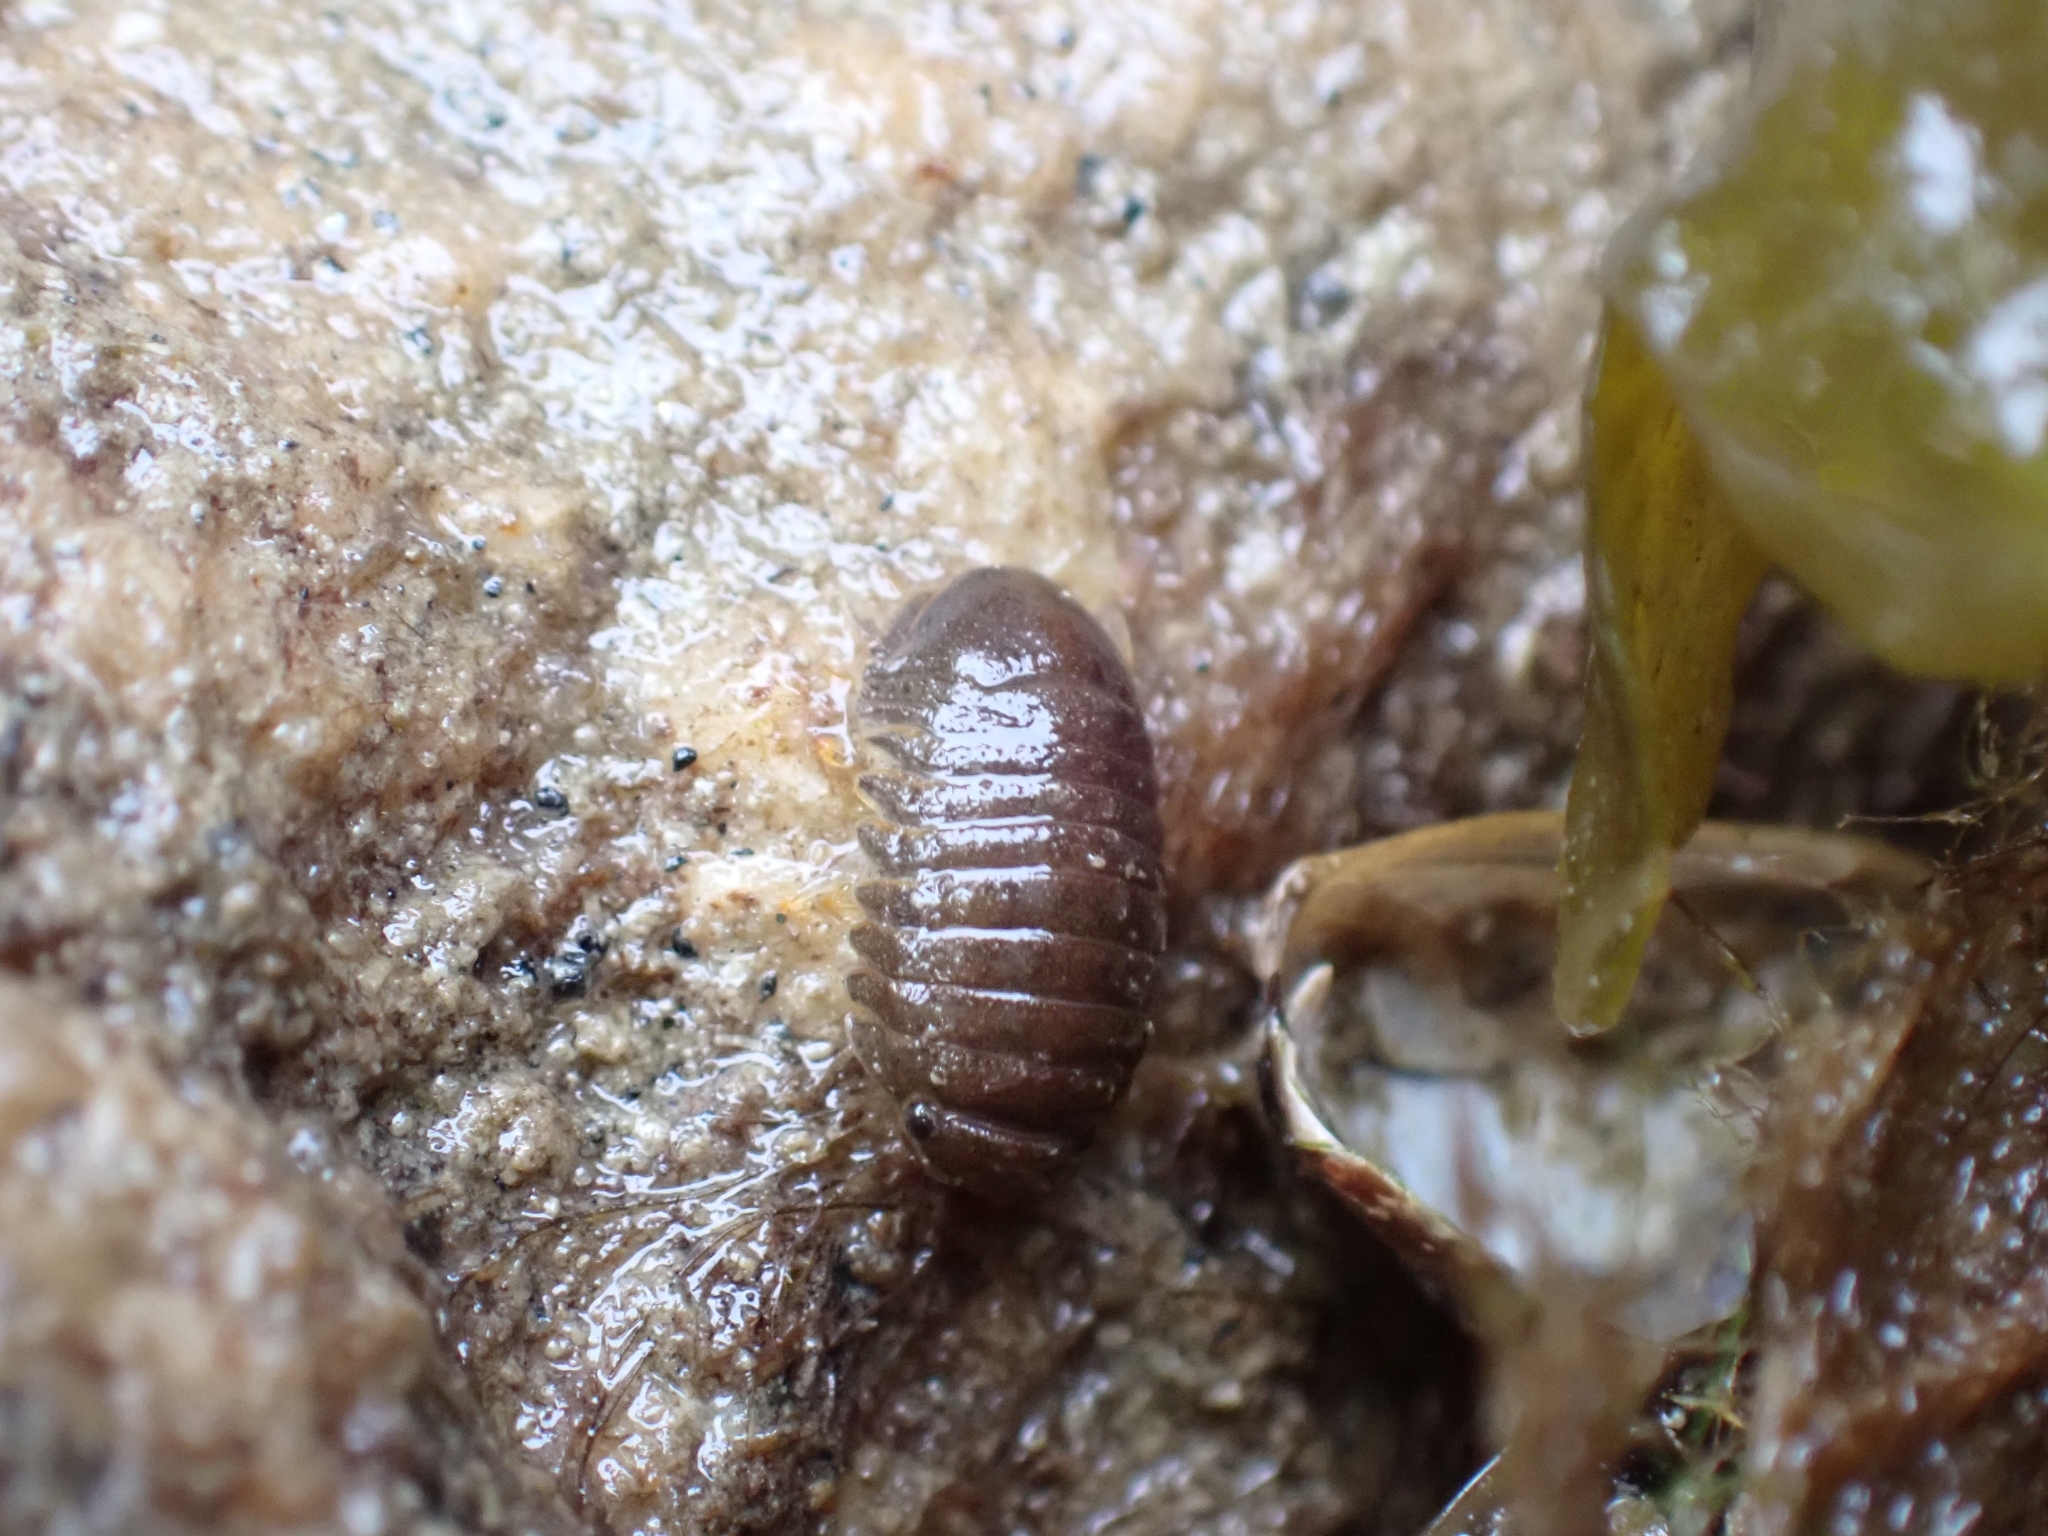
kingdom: Animalia
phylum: Arthropoda
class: Malacostraca
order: Isopoda
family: Sphaeromatidae
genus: Gnorimosphaeroma
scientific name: Gnorimosphaeroma oregonense
